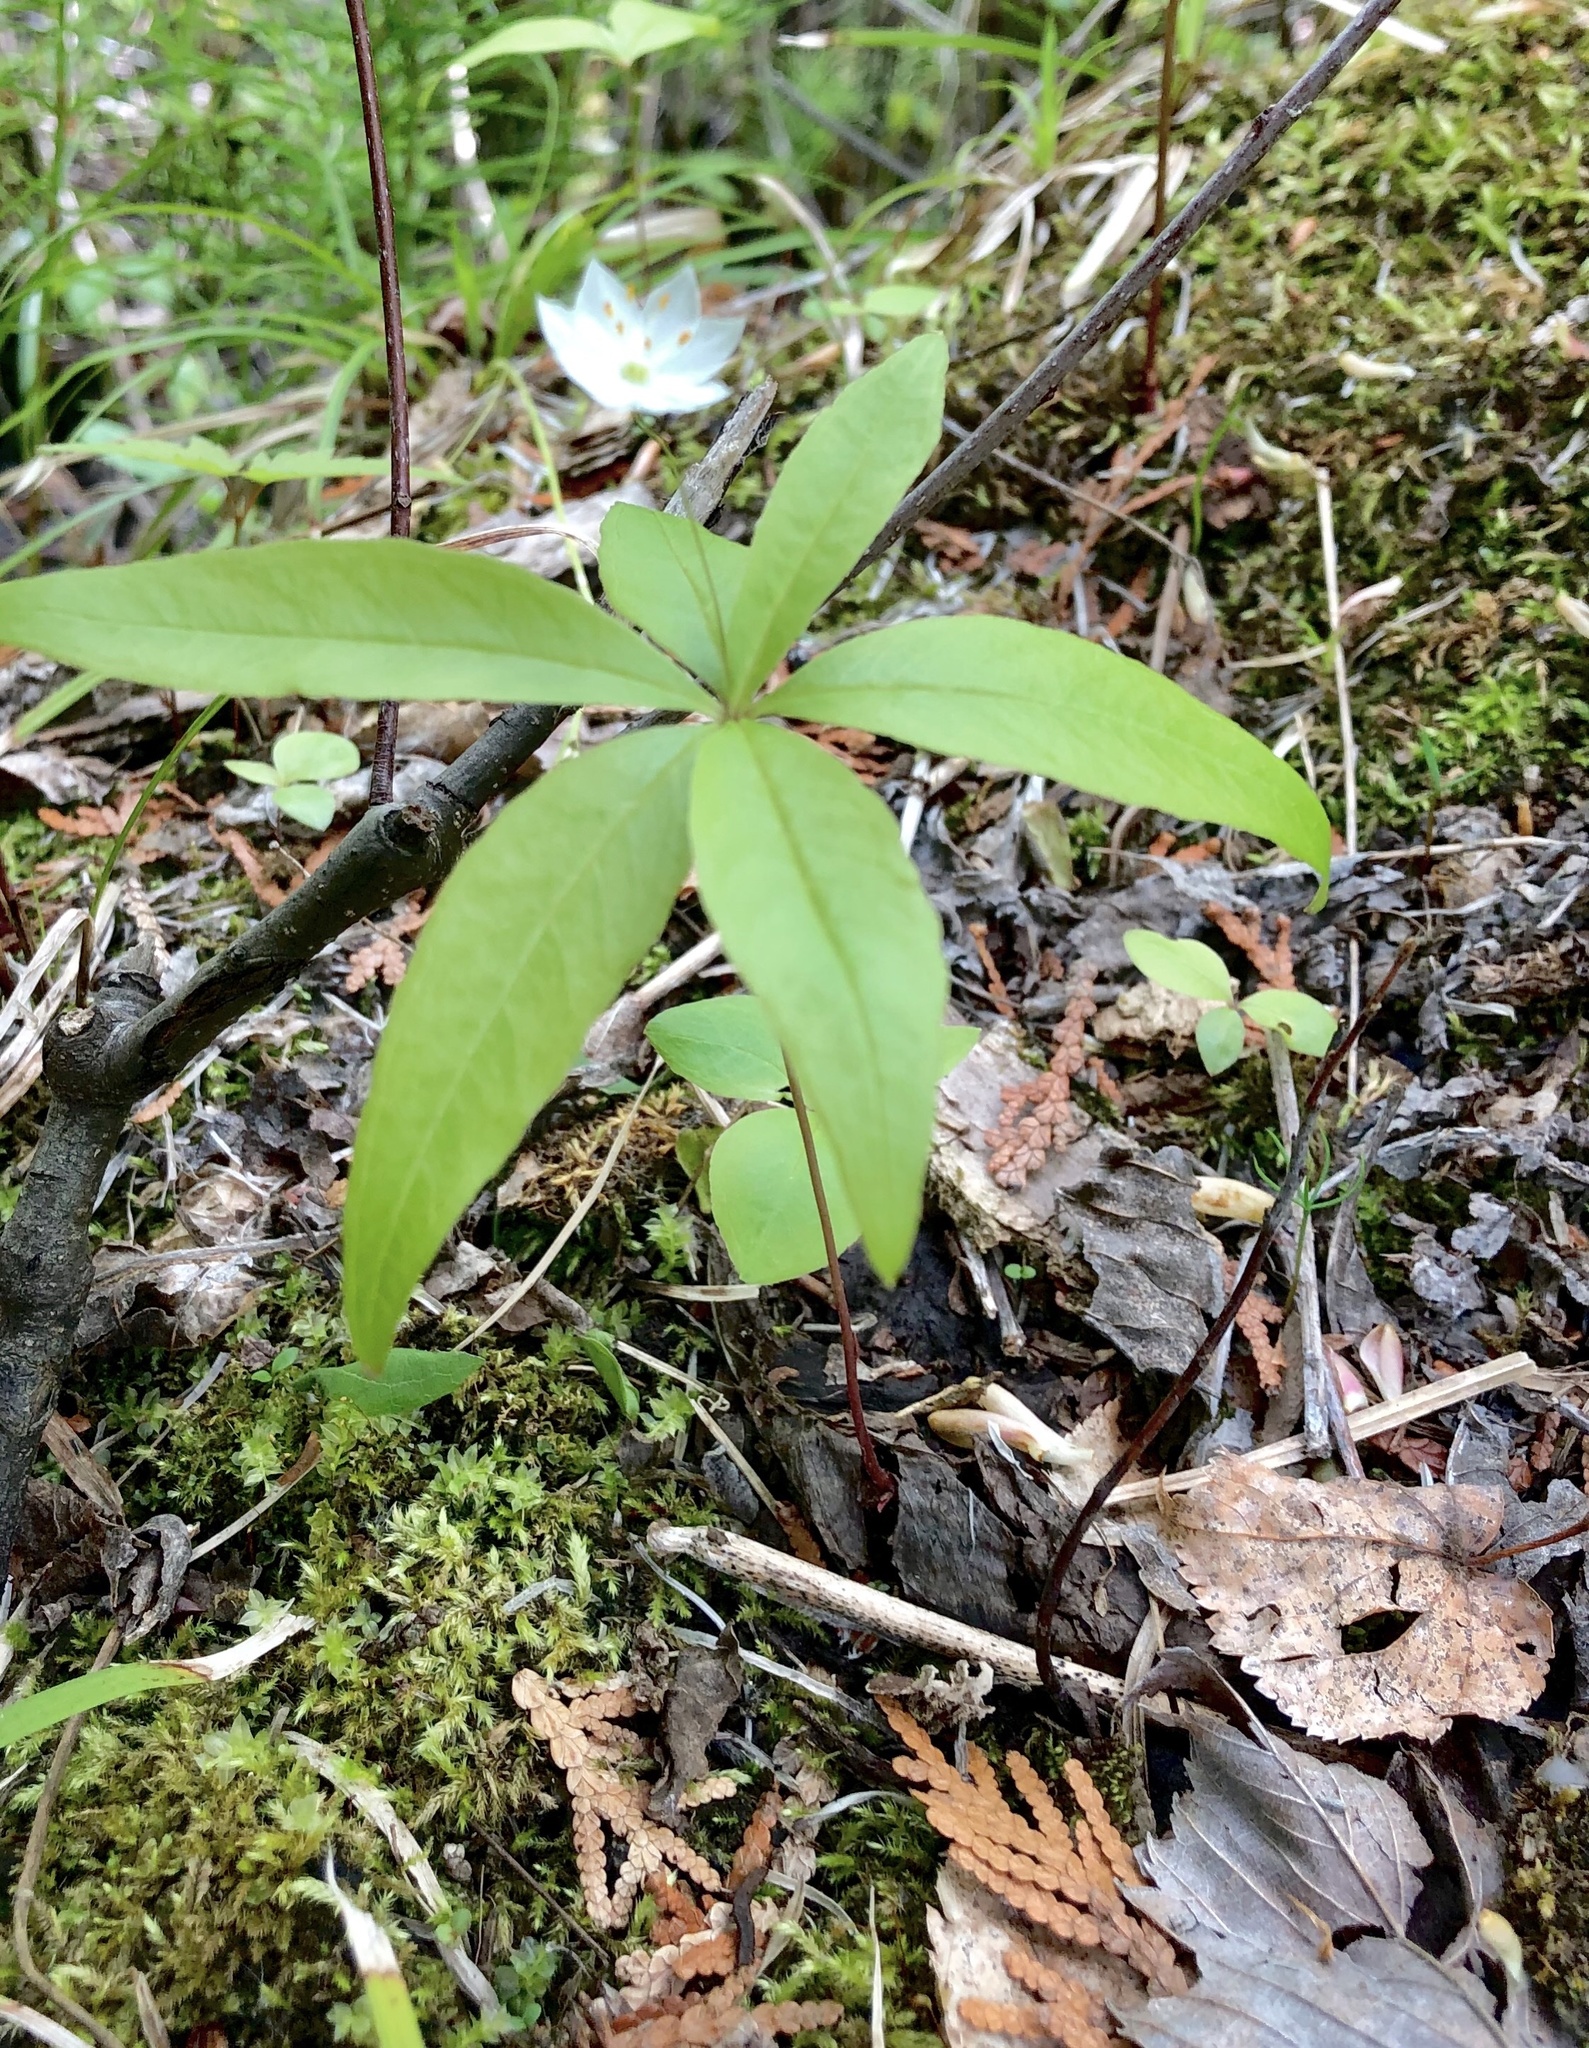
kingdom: Plantae
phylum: Tracheophyta
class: Magnoliopsida
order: Ericales
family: Primulaceae
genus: Lysimachia
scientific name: Lysimachia borealis
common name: American starflower
